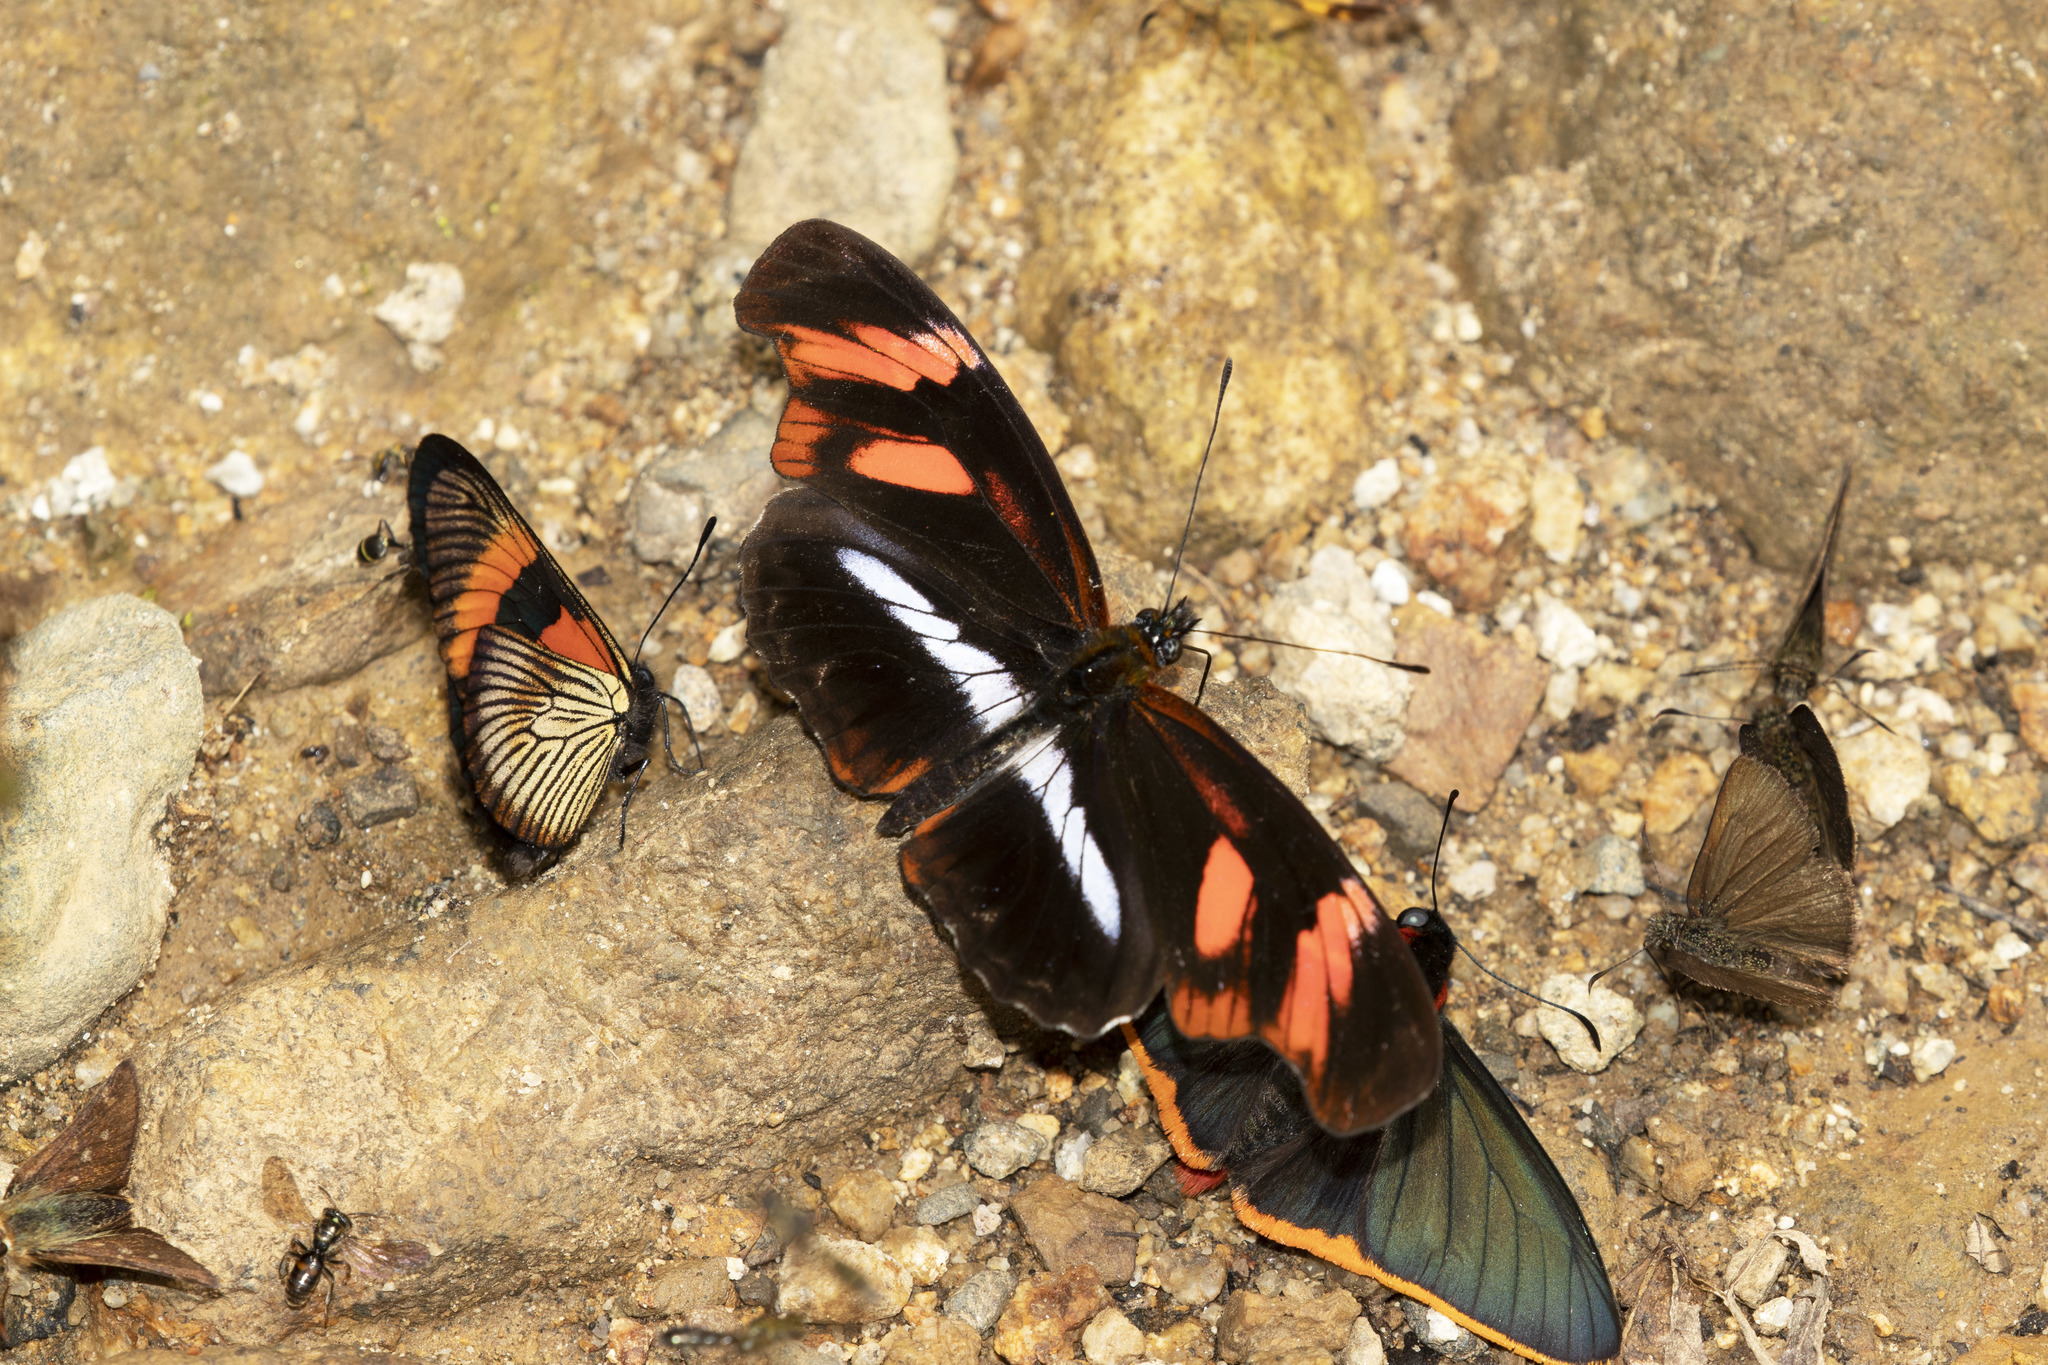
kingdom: Animalia
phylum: Arthropoda
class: Insecta
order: Lepidoptera
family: Nymphalidae
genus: Podotricha
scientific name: Podotricha telesiphe
